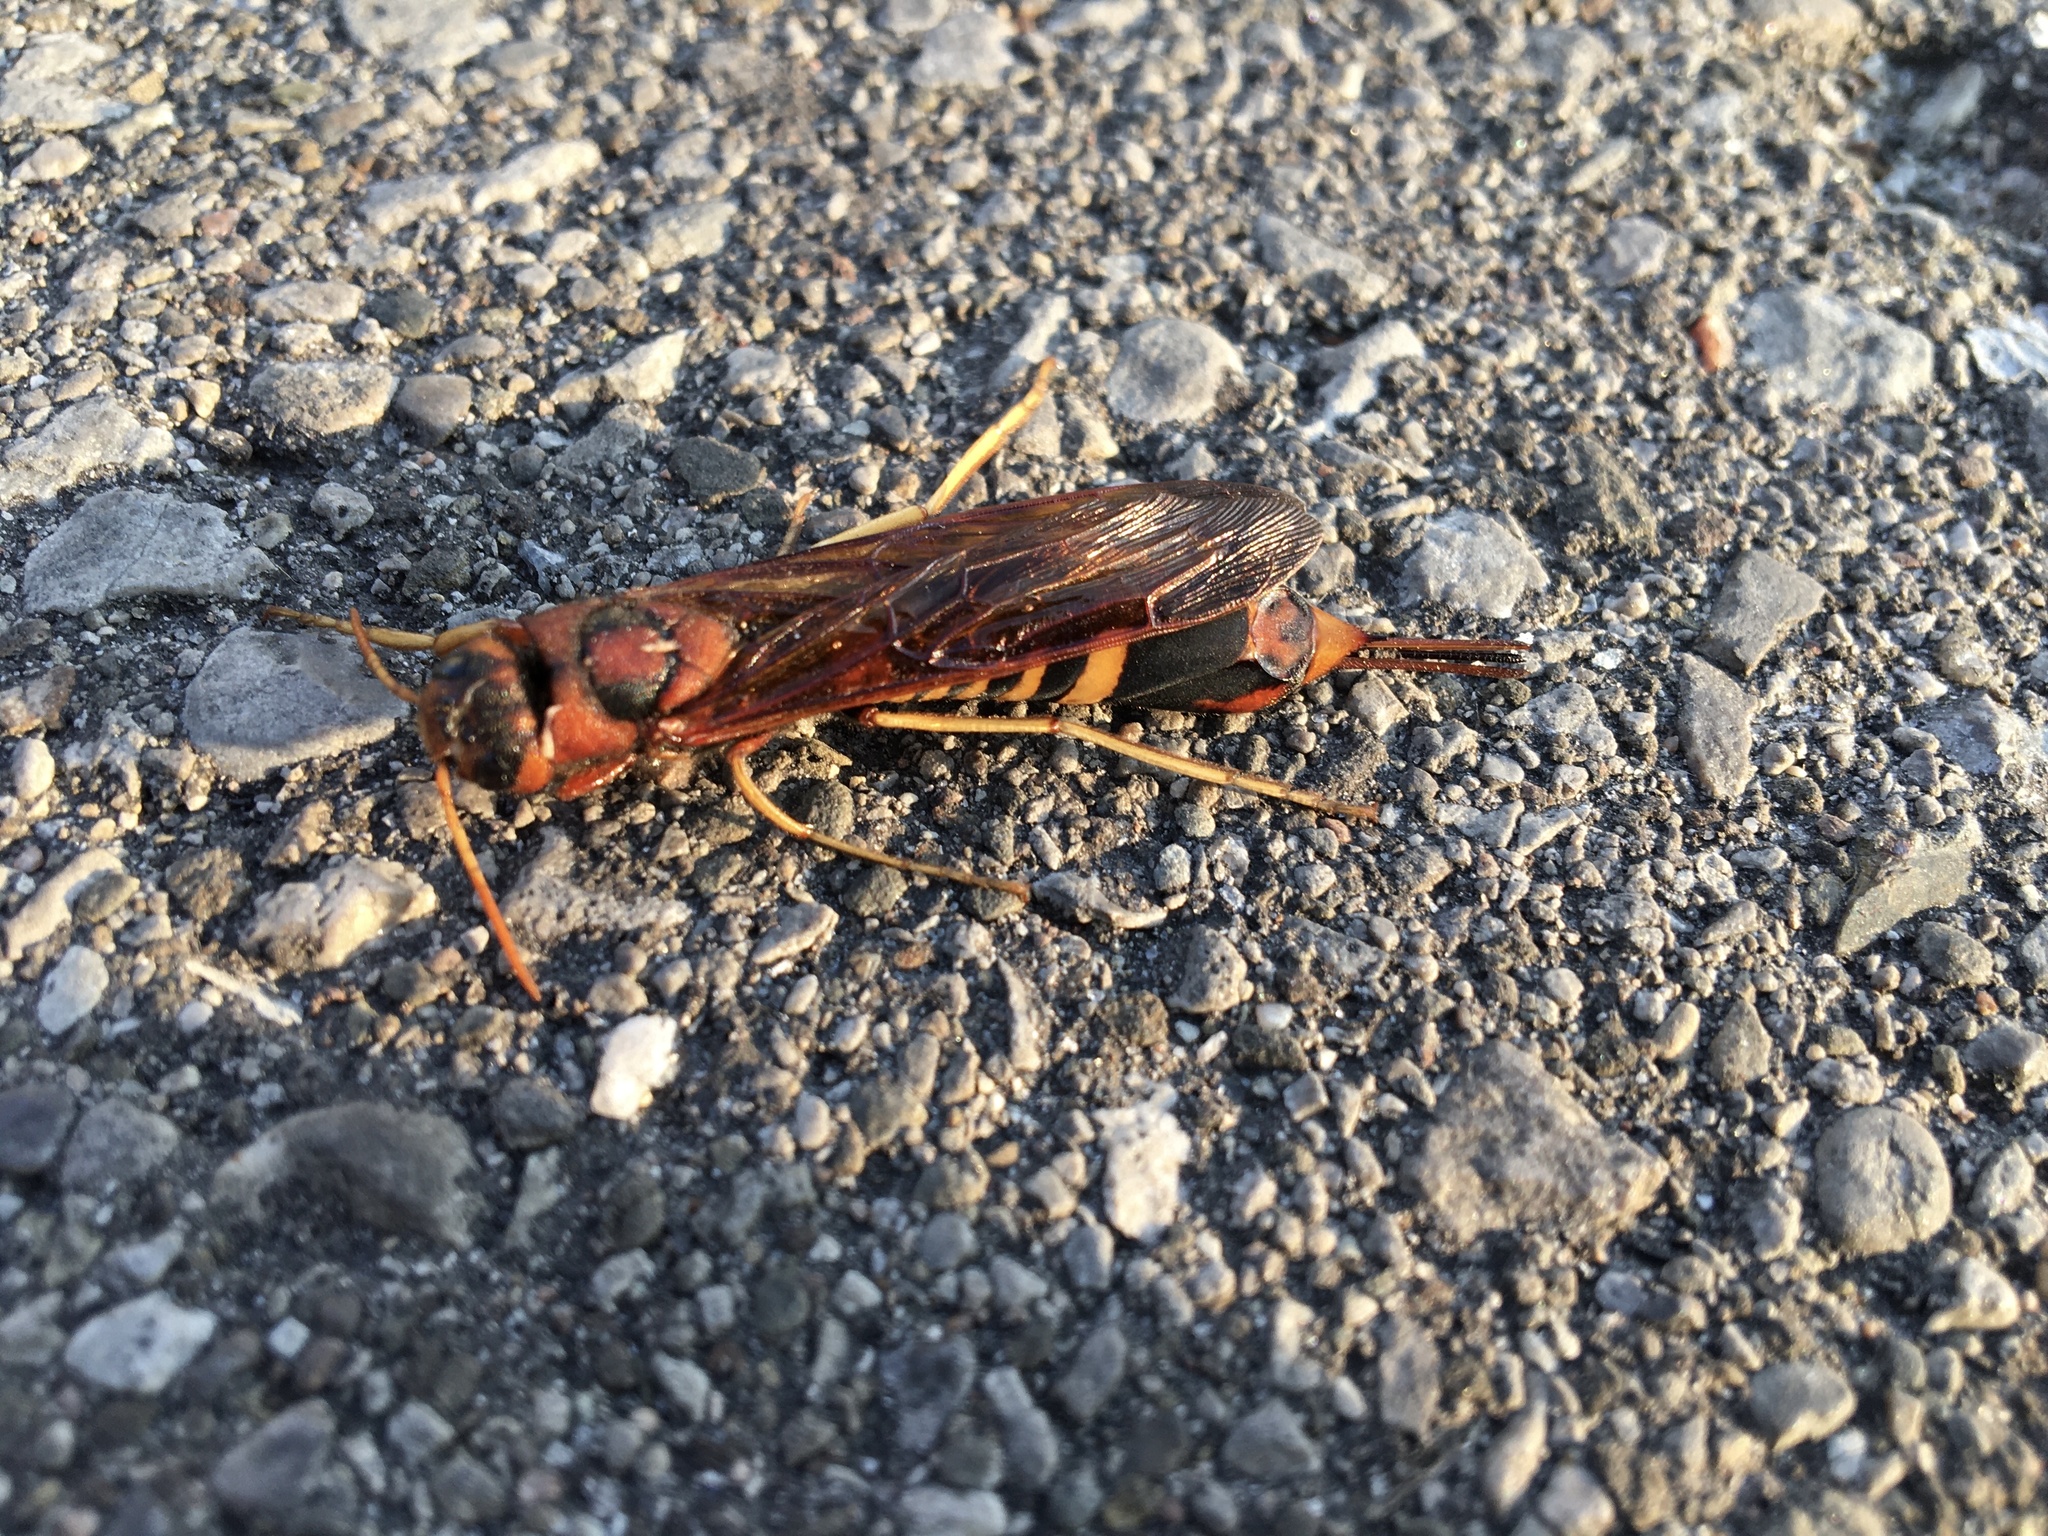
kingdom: Animalia
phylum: Arthropoda
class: Insecta
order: Hymenoptera
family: Siricidae
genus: Tremex
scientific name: Tremex columba
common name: Wasp
